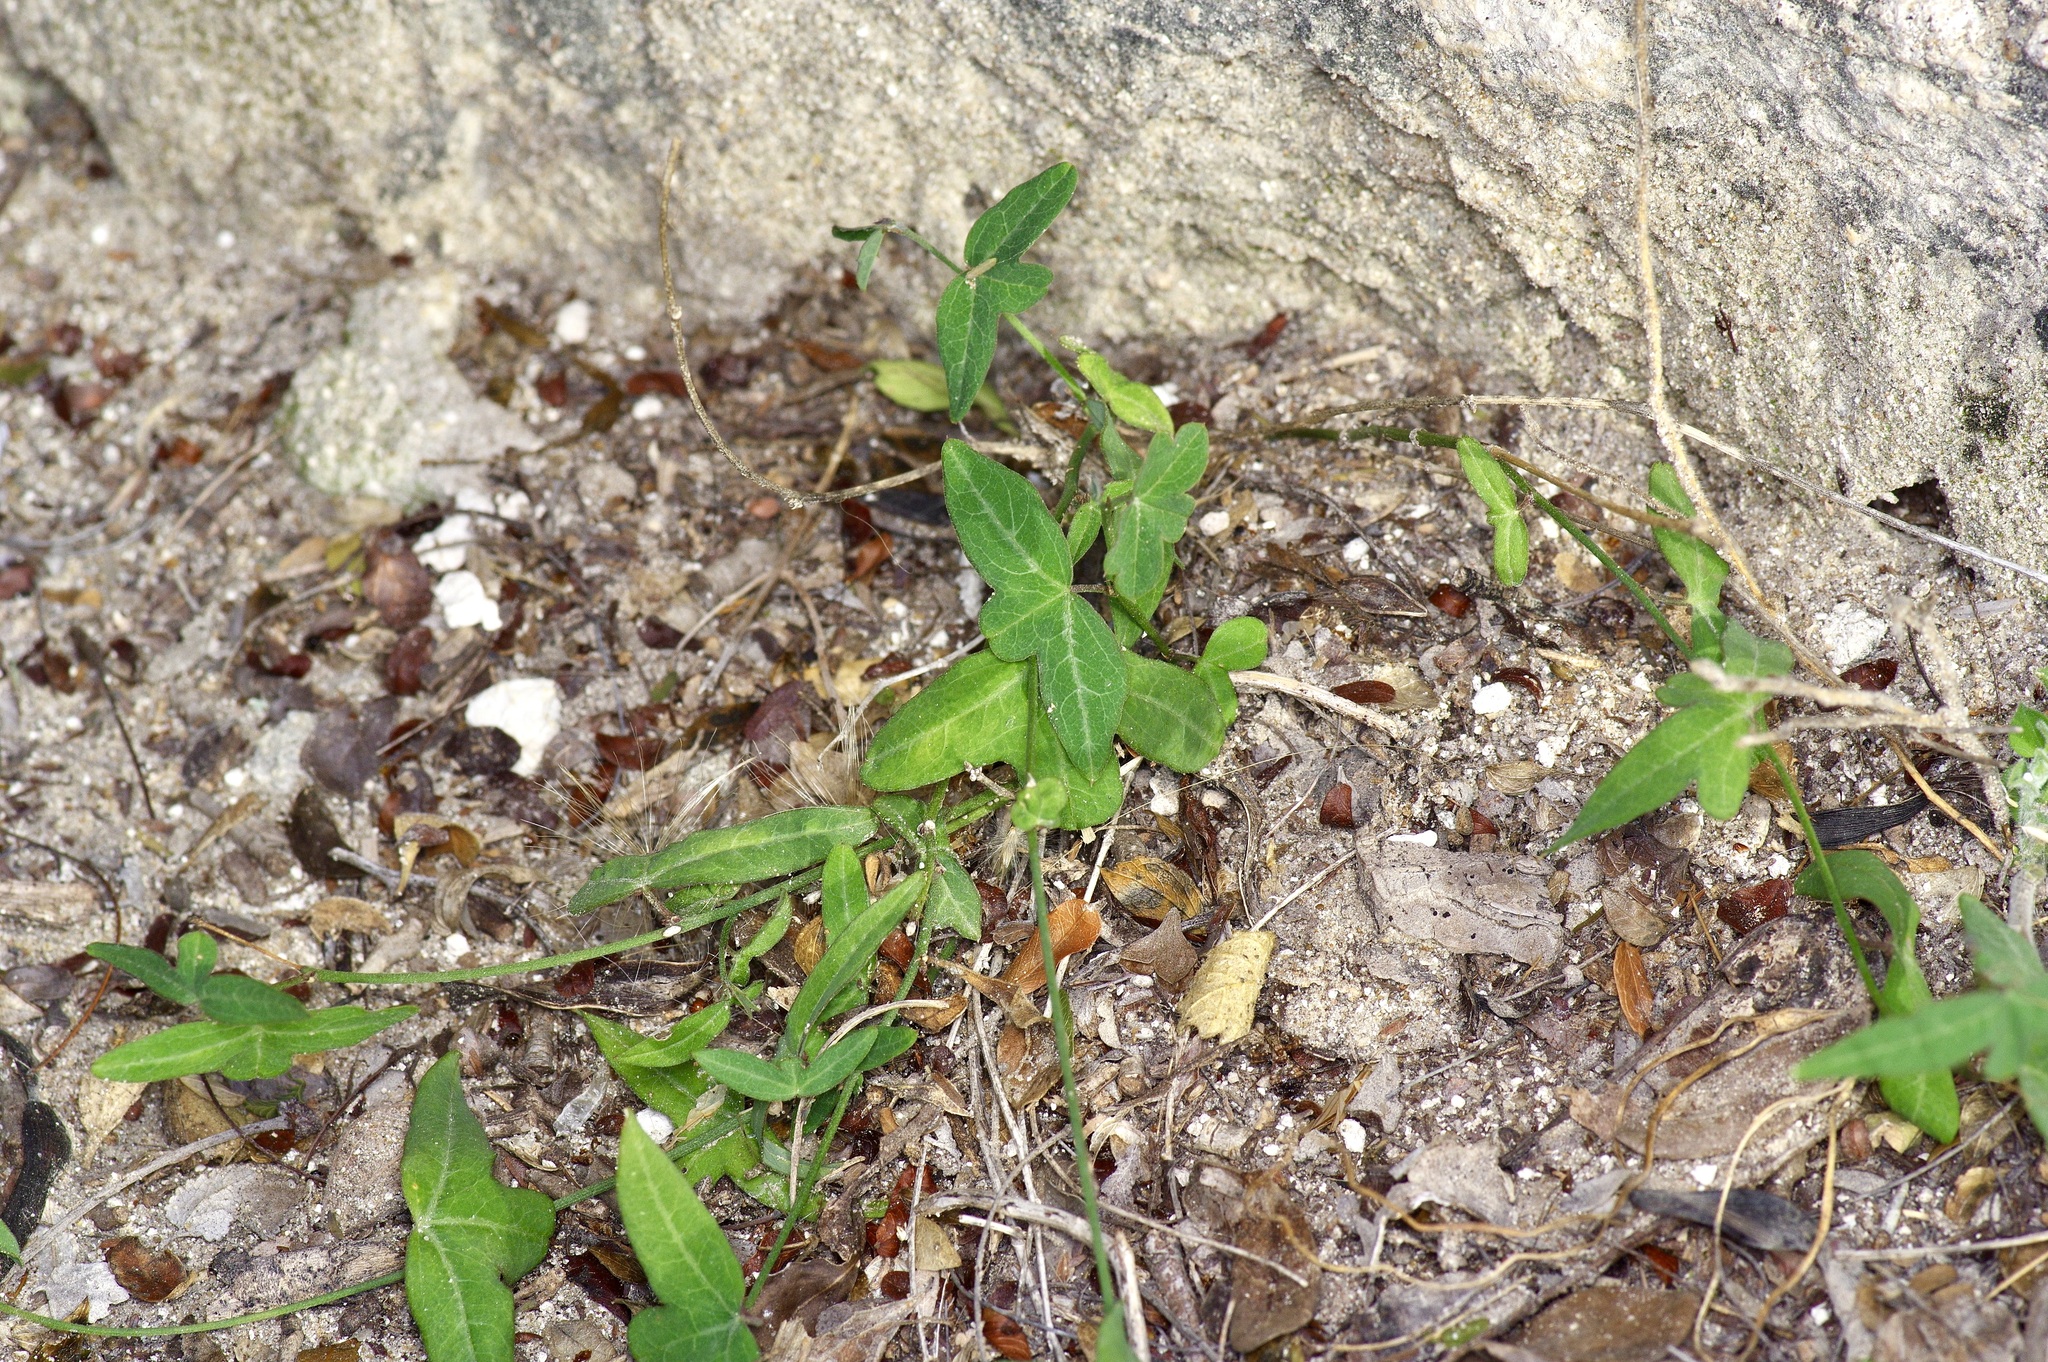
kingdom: Plantae
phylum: Tracheophyta
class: Magnoliopsida
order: Malpighiales
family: Passifloraceae
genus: Passiflora
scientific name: Passiflora tenuiloba
